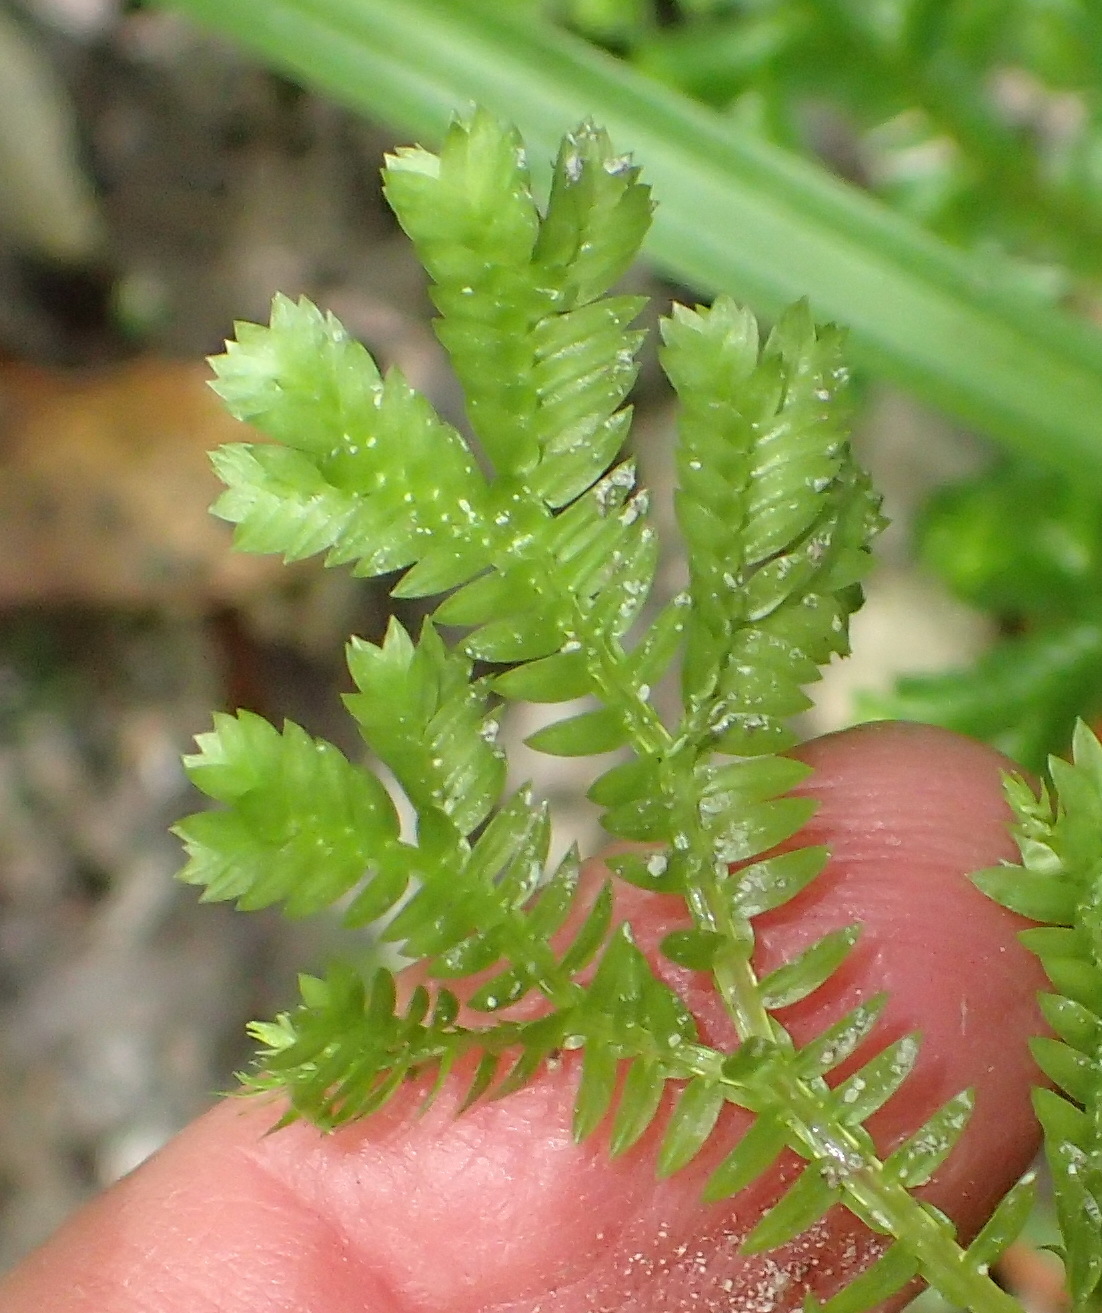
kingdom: Plantae
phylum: Tracheophyta
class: Lycopodiopsida
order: Selaginellales
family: Selaginellaceae
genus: Selaginella
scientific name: Selaginella kraussiana
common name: Krauss' spikemoss
